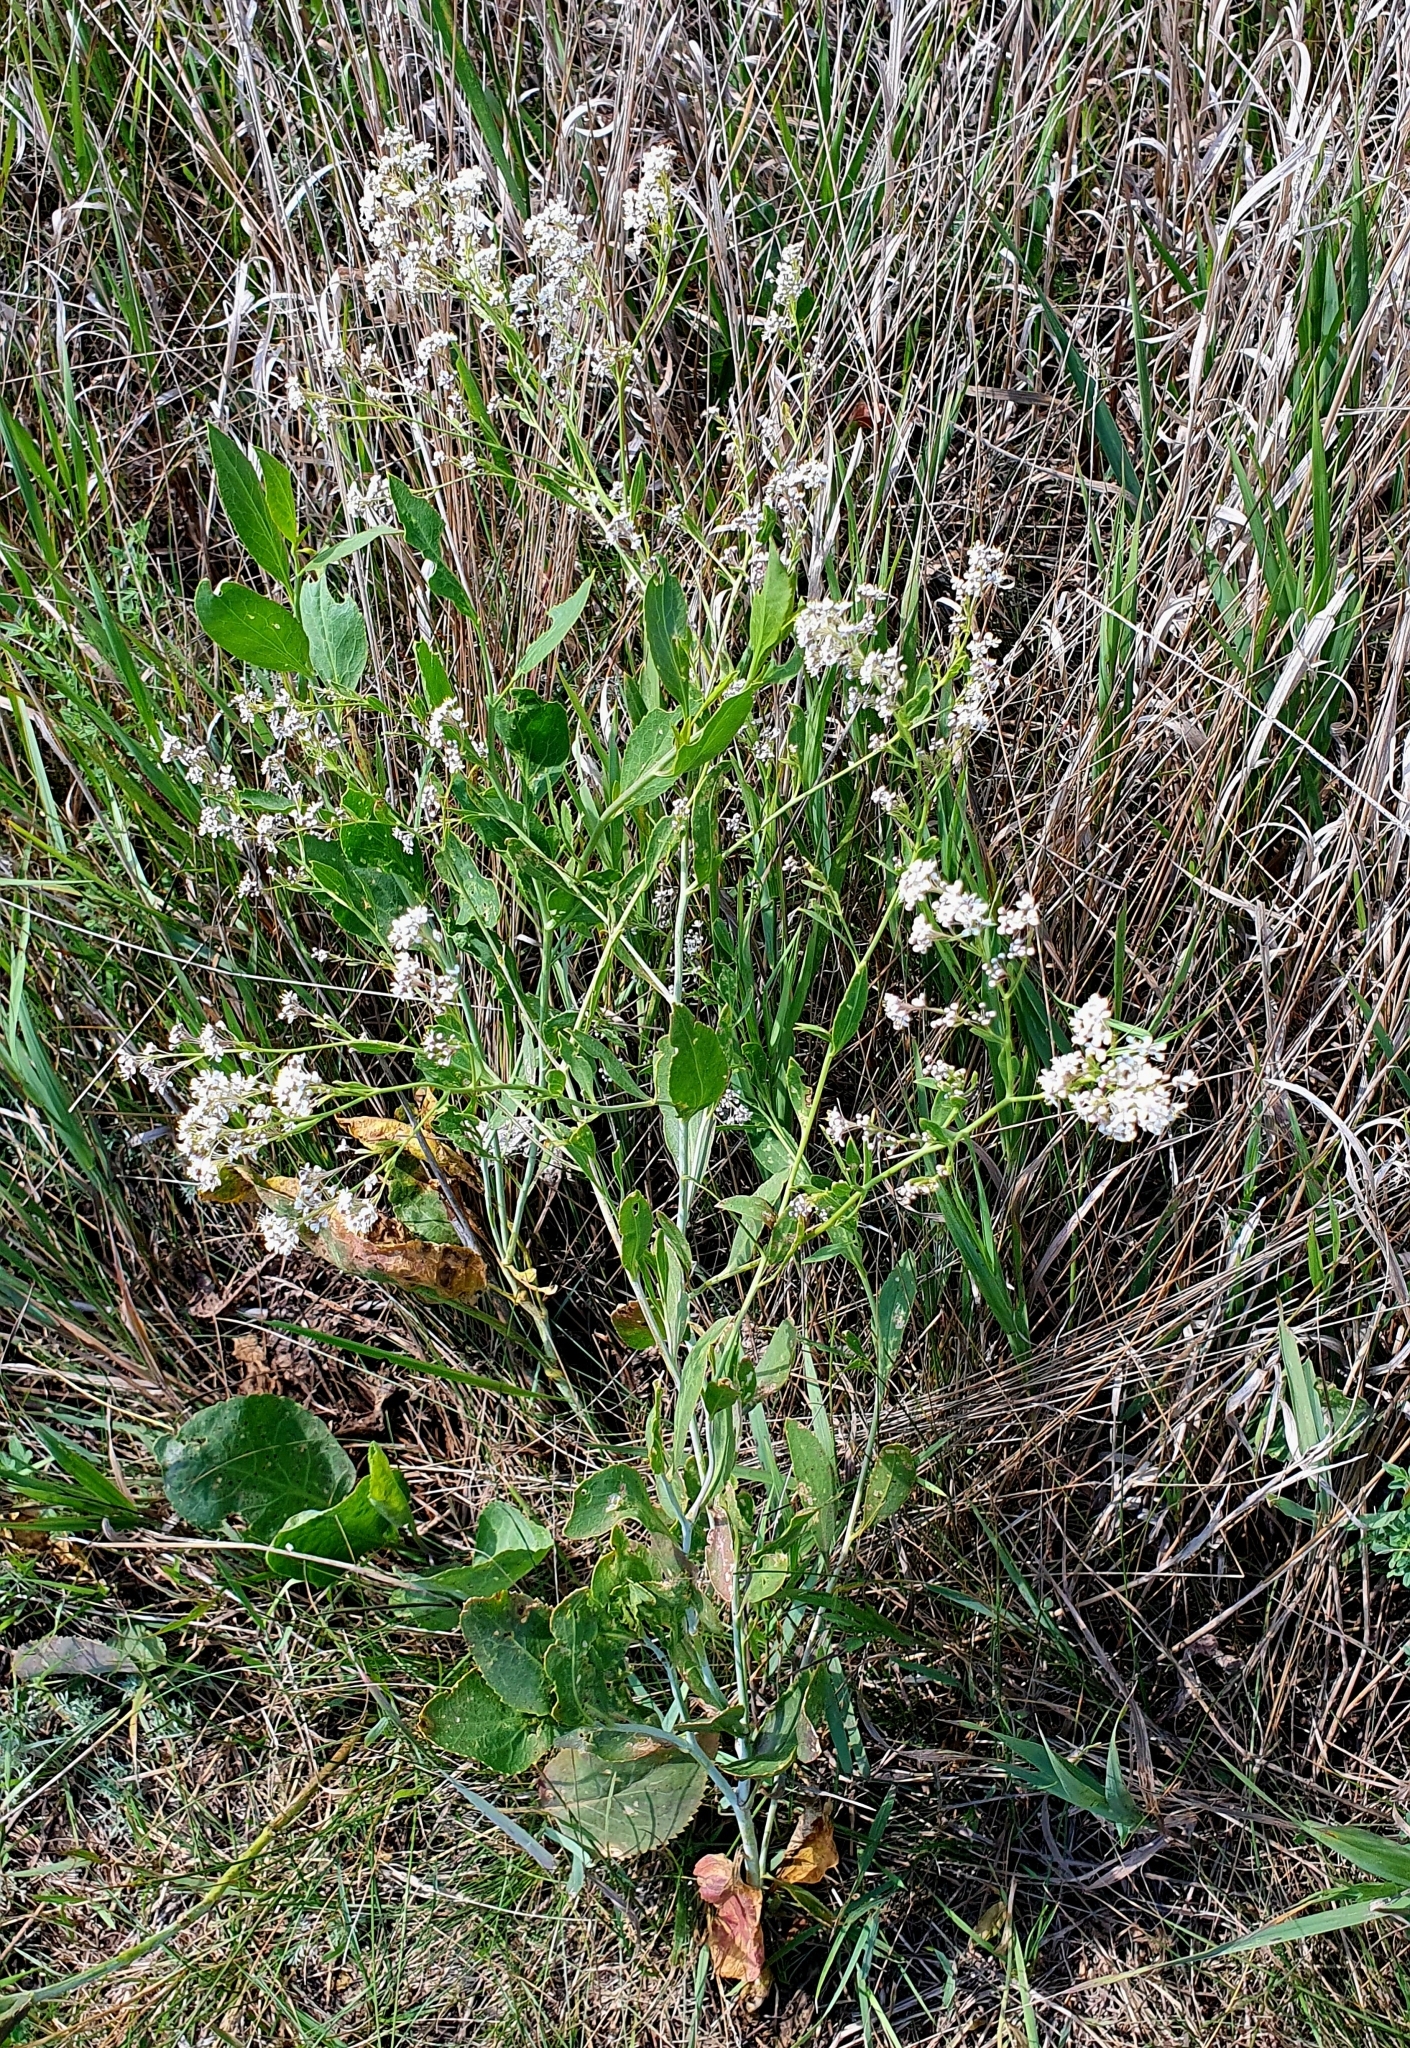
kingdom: Plantae
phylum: Tracheophyta
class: Magnoliopsida
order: Brassicales
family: Brassicaceae
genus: Lepidium
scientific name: Lepidium latifolium
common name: Dittander
